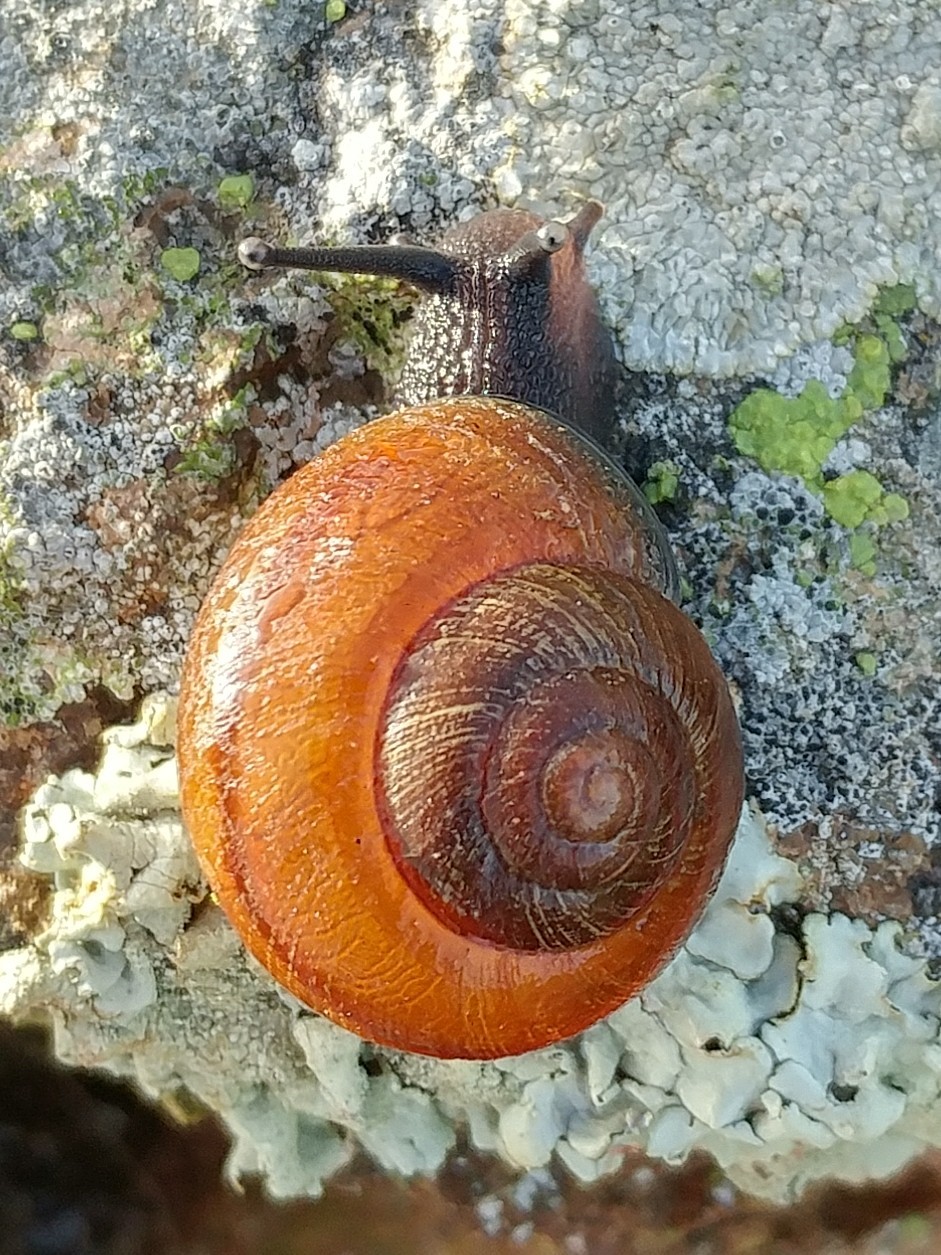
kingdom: Animalia
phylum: Mollusca
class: Gastropoda
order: Stylommatophora
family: Xanthonychidae
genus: Xerarionta
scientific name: Xerarionta redimita
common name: Wreathed cactus snail
